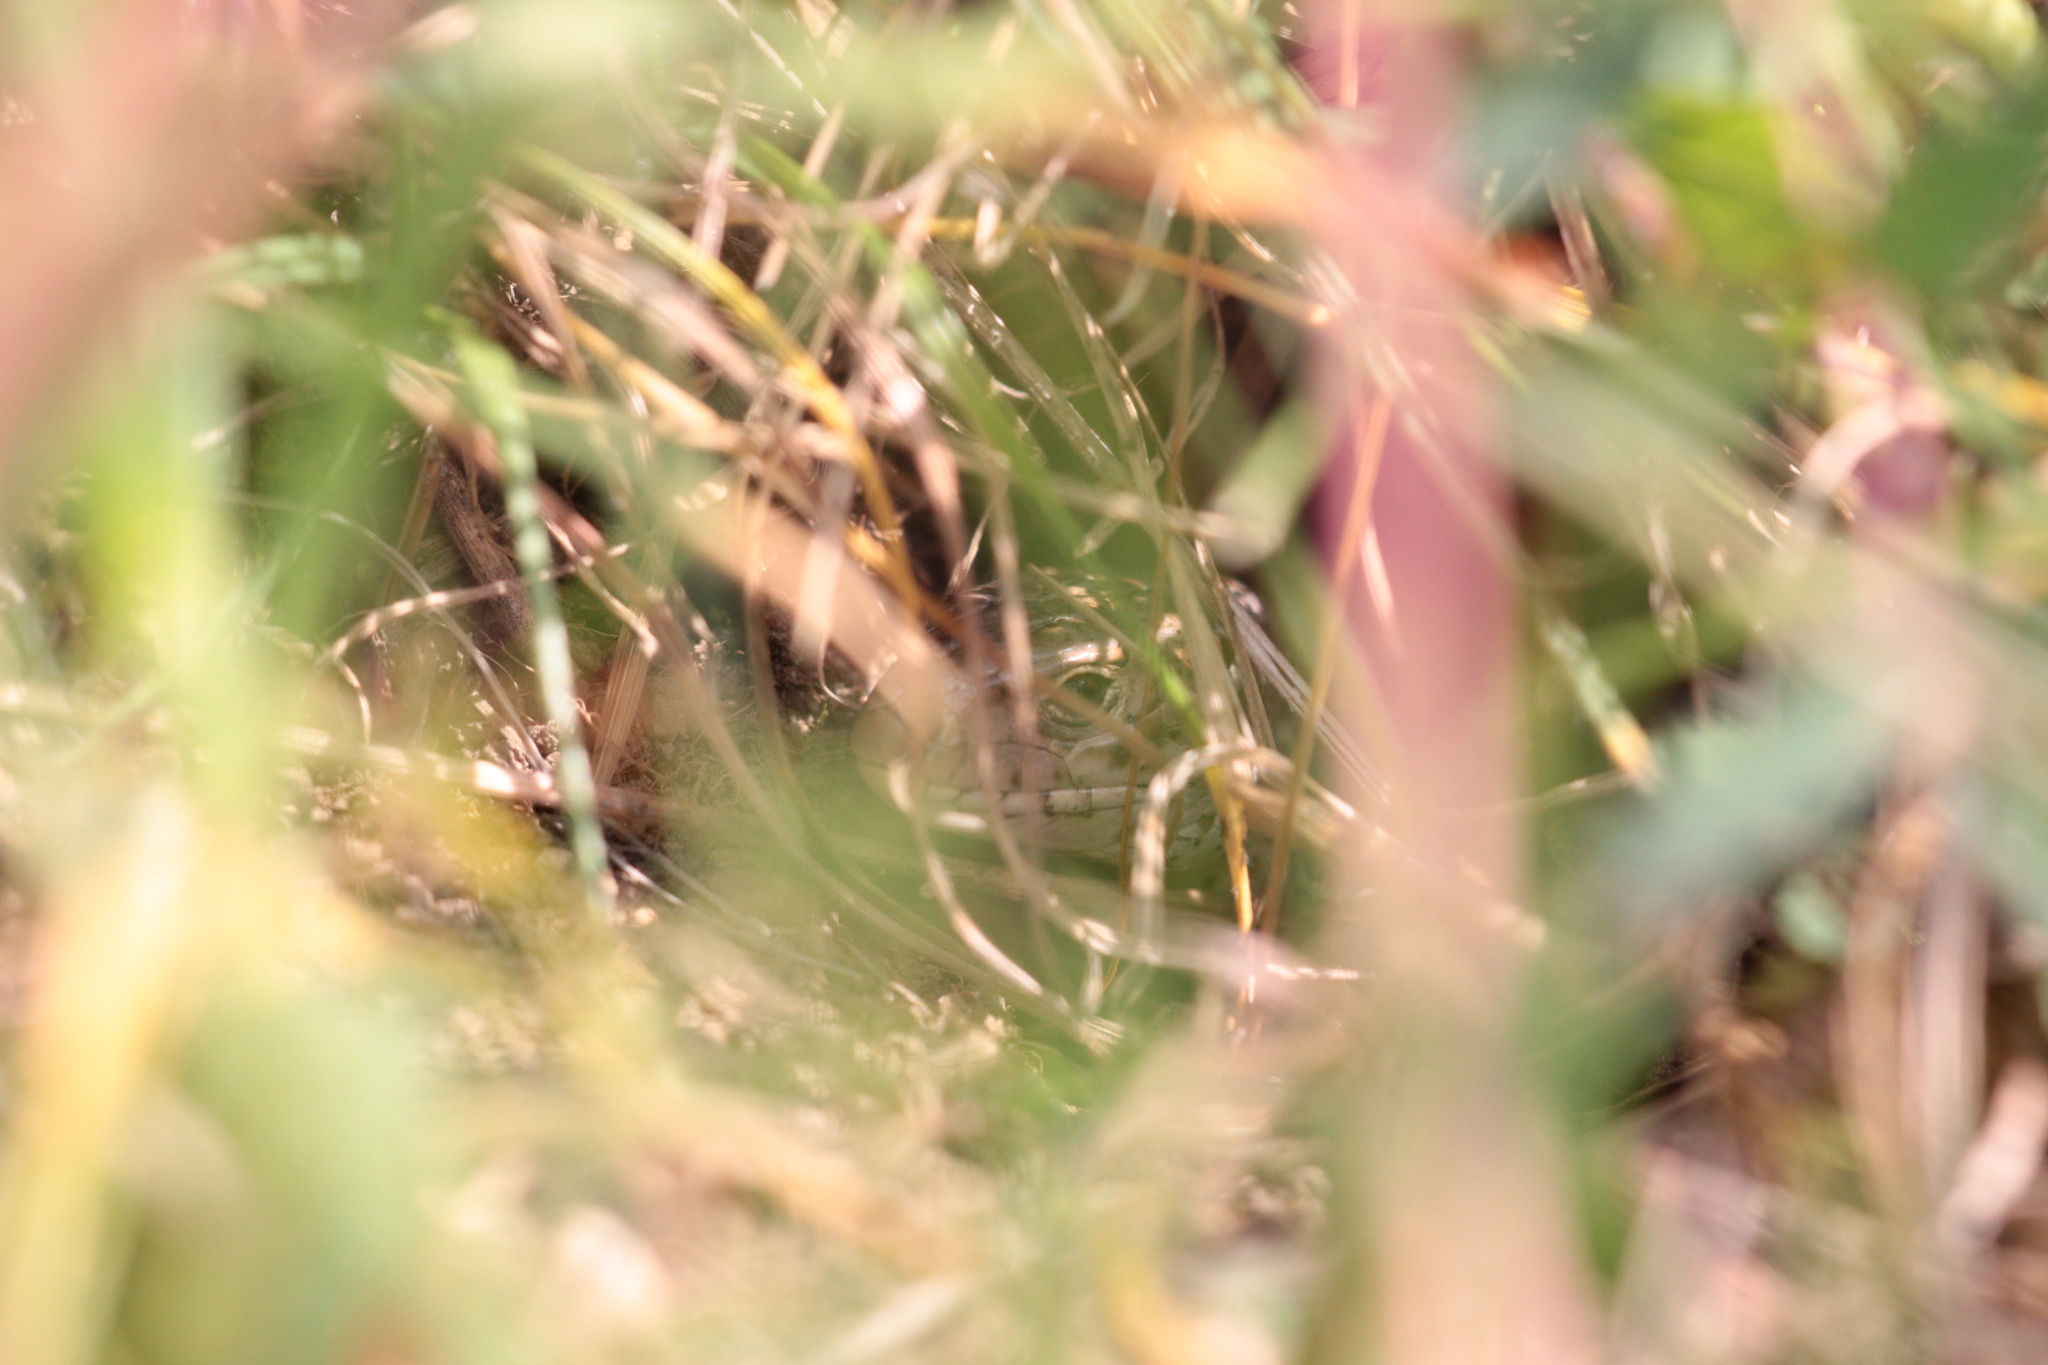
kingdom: Animalia
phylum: Chordata
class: Squamata
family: Lacertidae
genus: Lacerta
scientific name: Lacerta agilis
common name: Sand lizard
